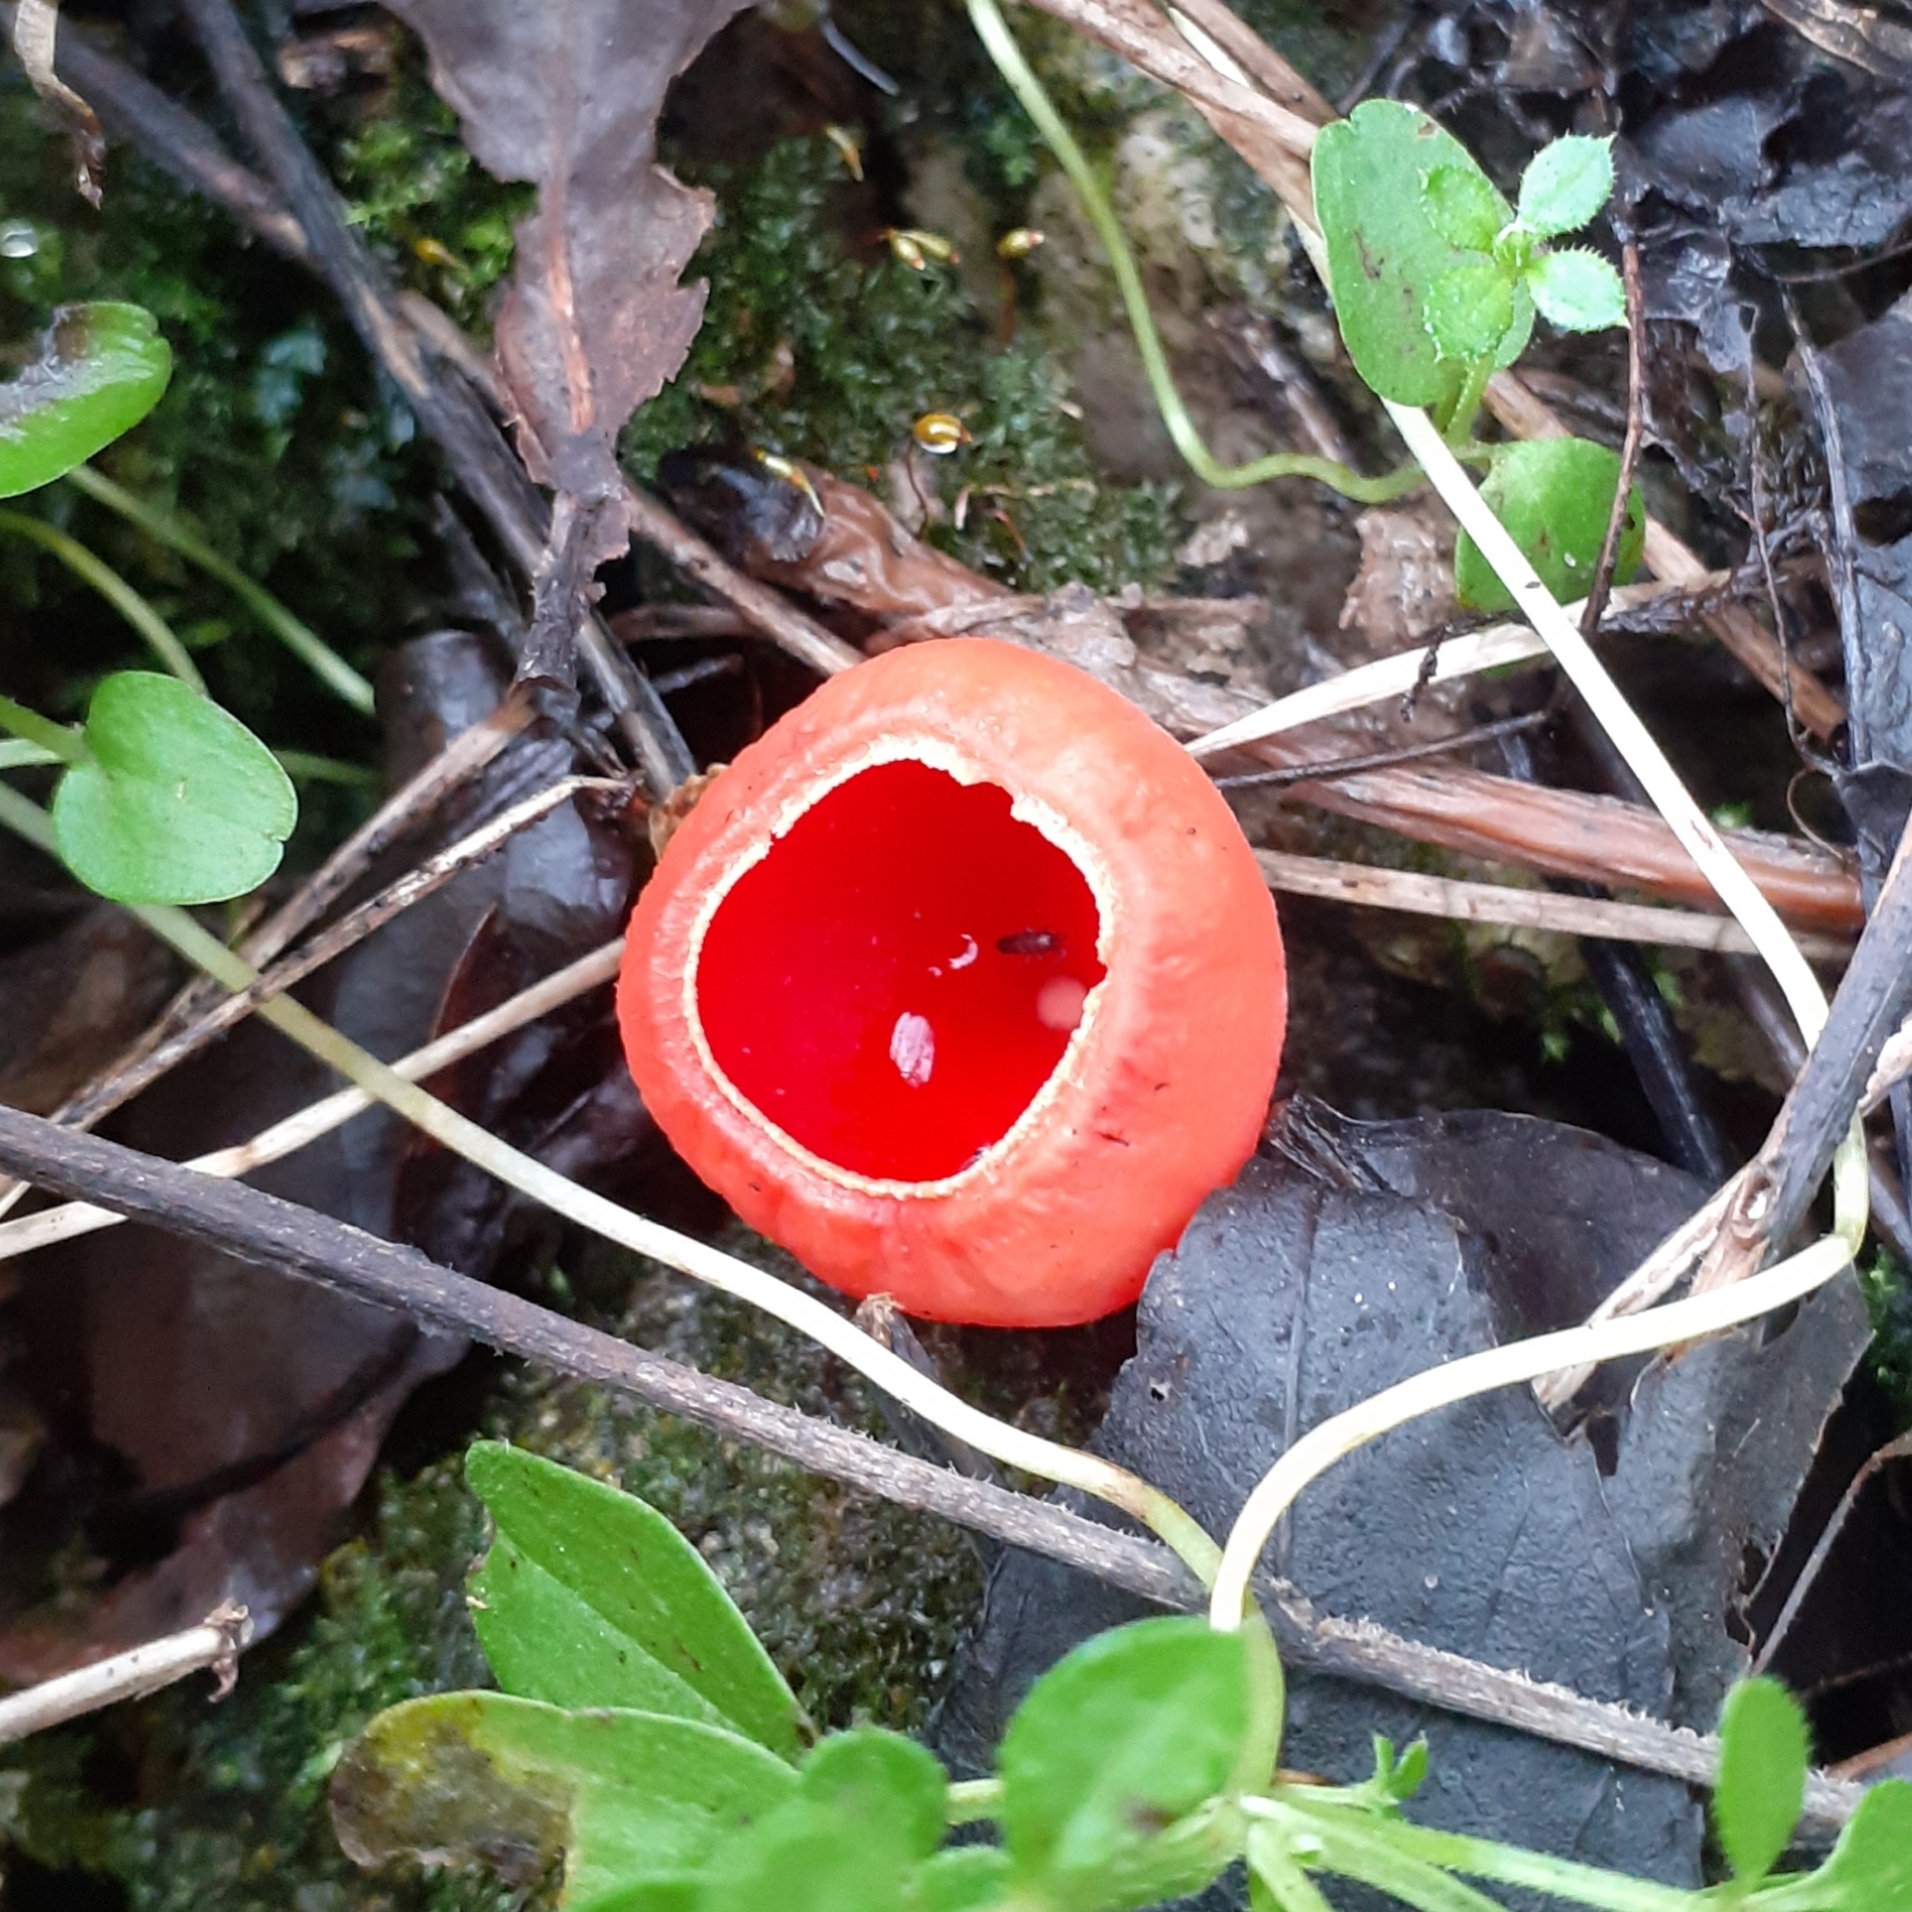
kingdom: Fungi
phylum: Ascomycota
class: Pezizomycetes
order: Pezizales
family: Sarcoscyphaceae
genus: Sarcoscypha
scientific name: Sarcoscypha
